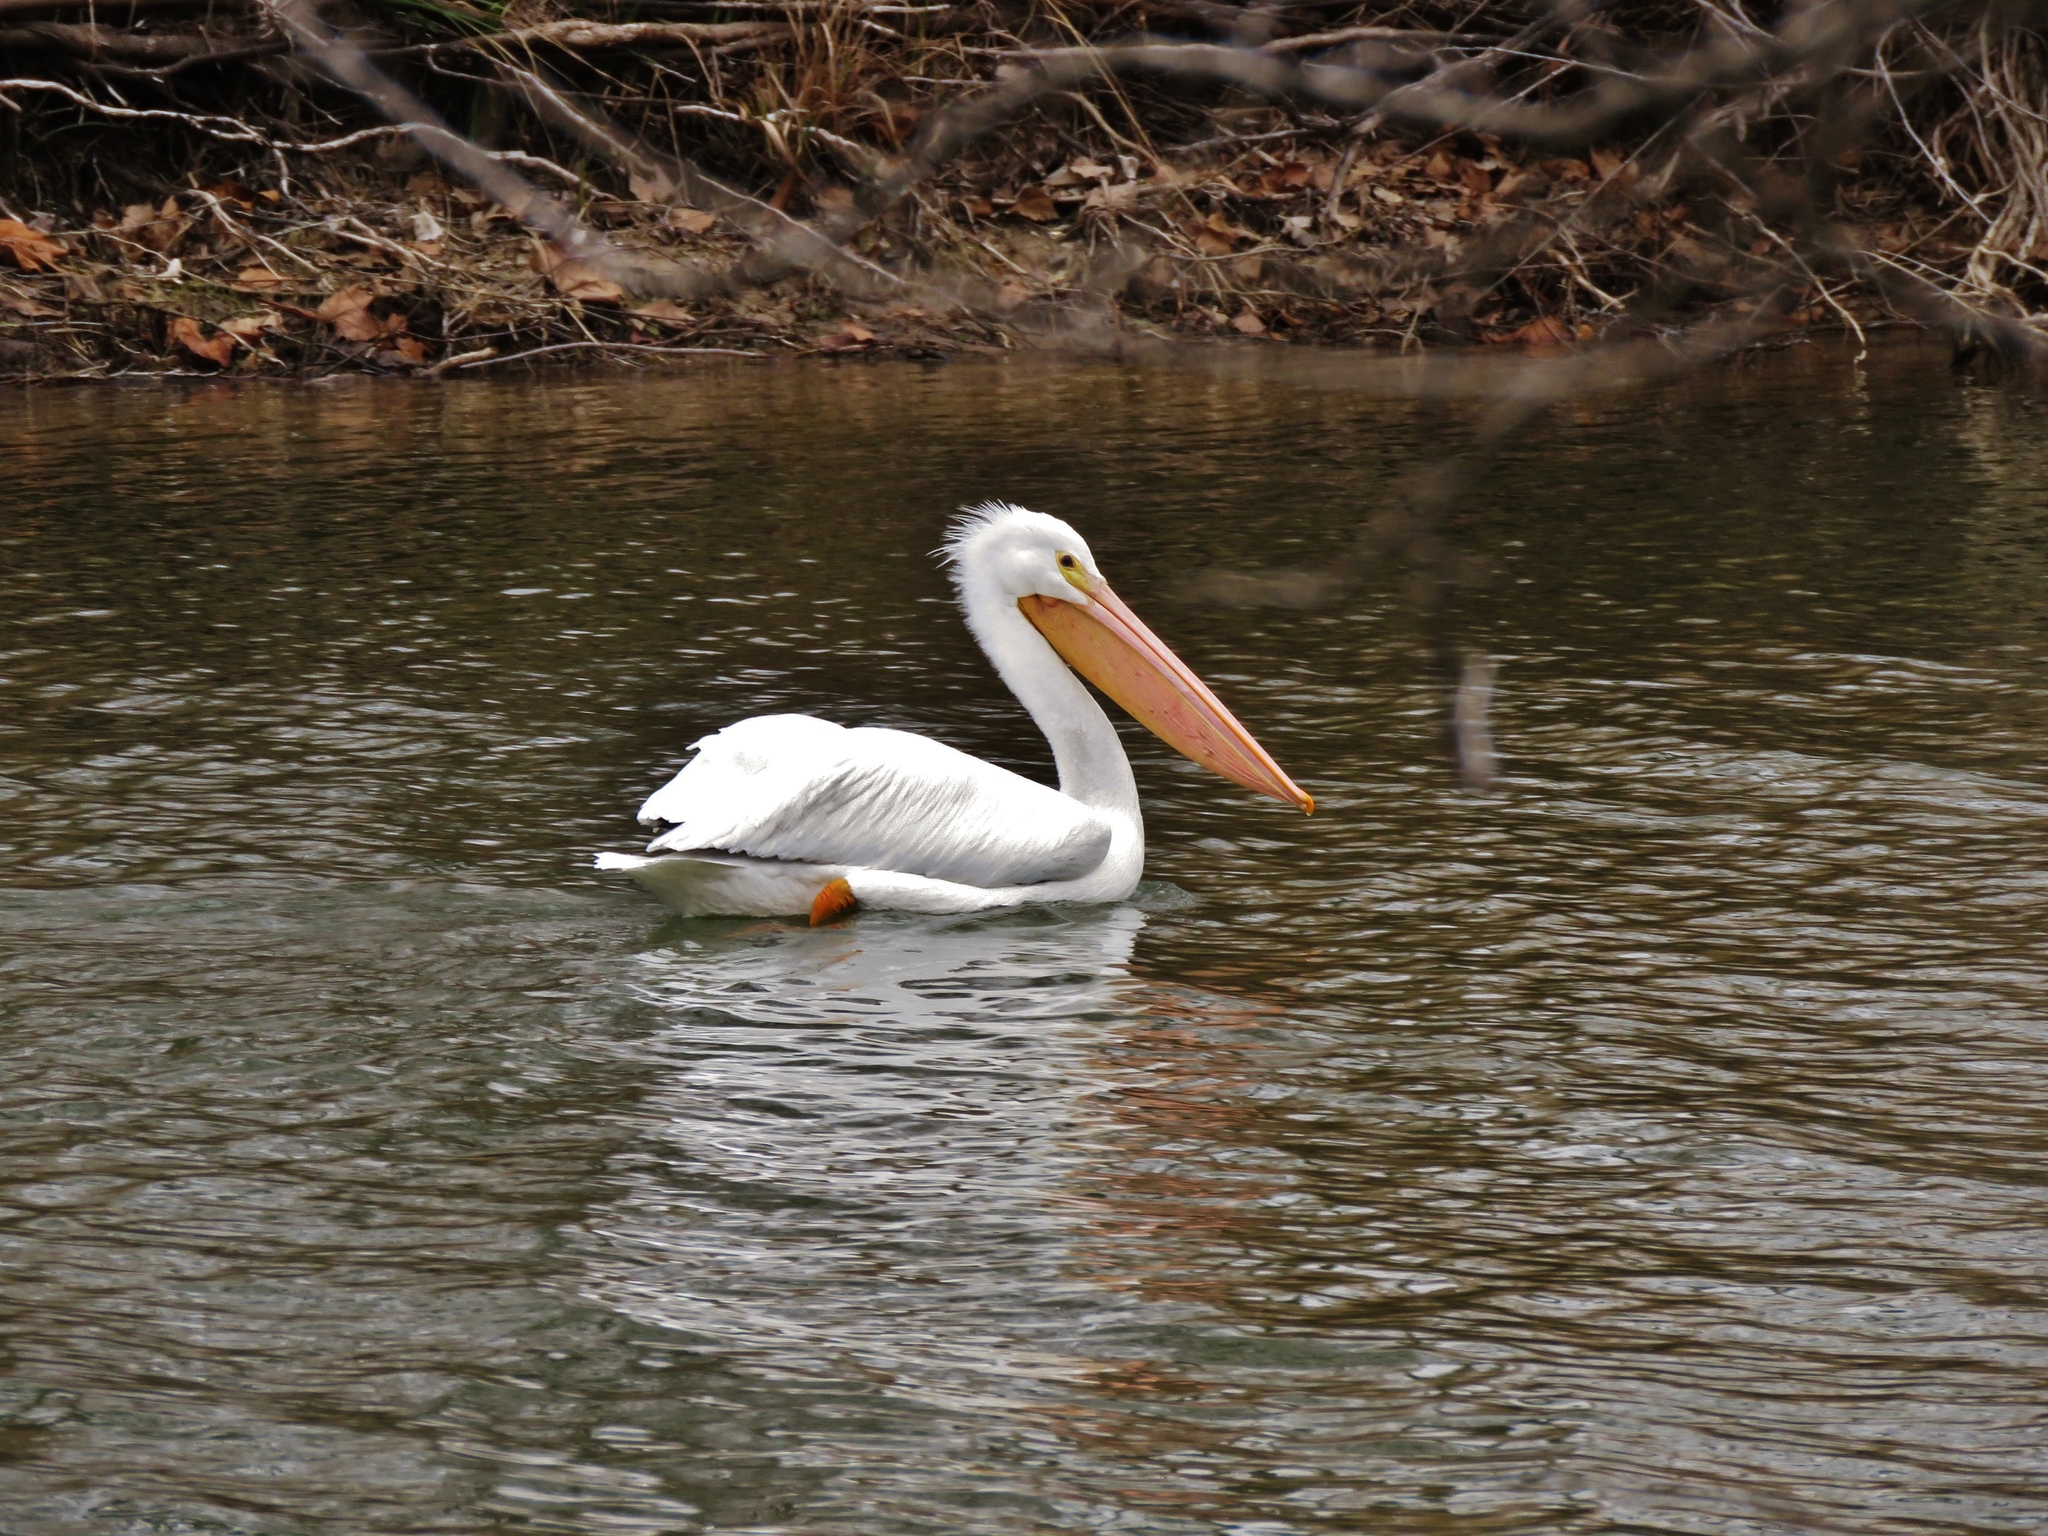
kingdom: Animalia
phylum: Chordata
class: Aves
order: Pelecaniformes
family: Pelecanidae
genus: Pelecanus
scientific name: Pelecanus erythrorhynchos
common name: American white pelican
